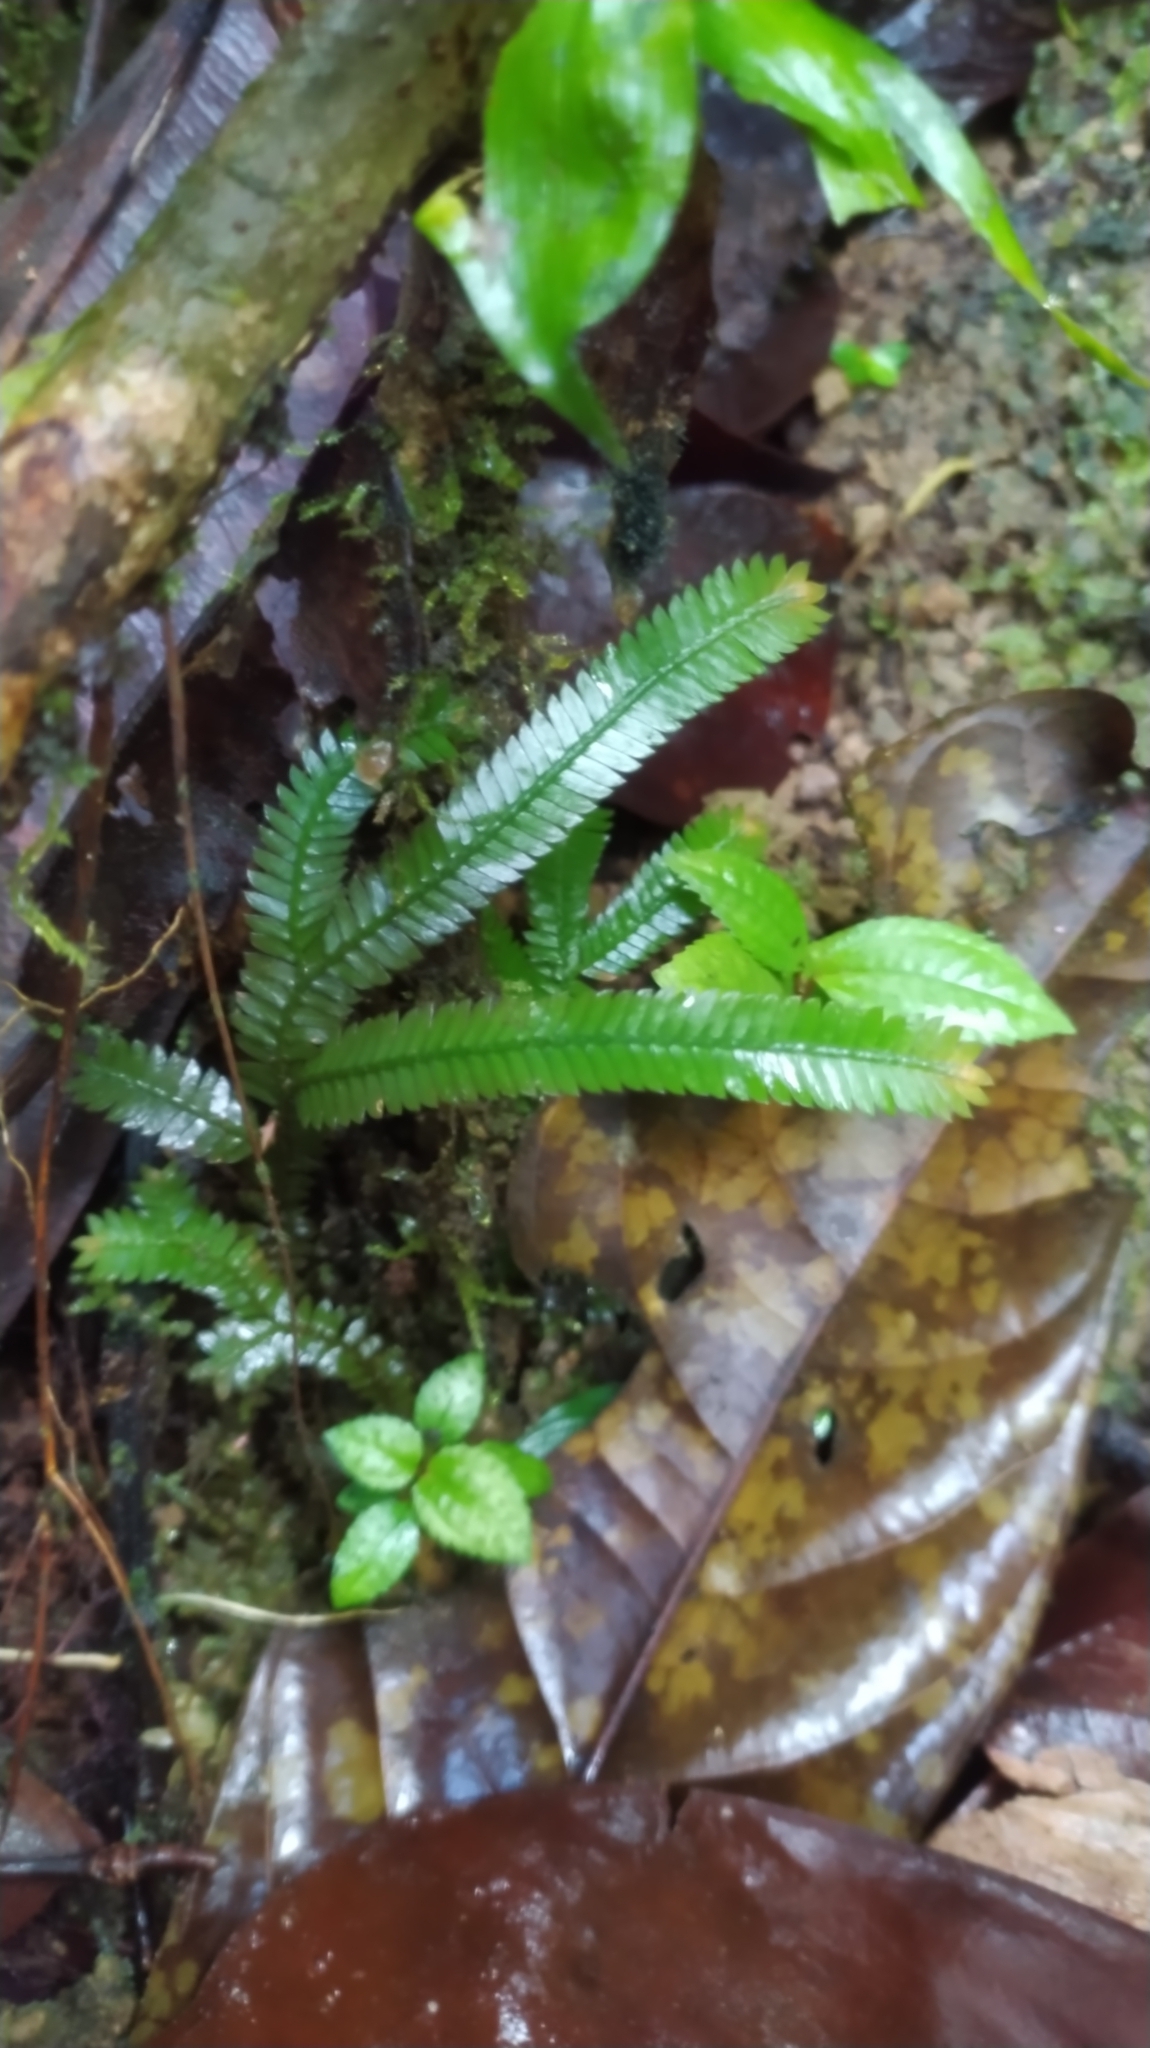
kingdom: Plantae
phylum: Tracheophyta
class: Lycopodiopsida
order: Selaginellales
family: Selaginellaceae
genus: Selaginella
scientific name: Selaginella parkeri
